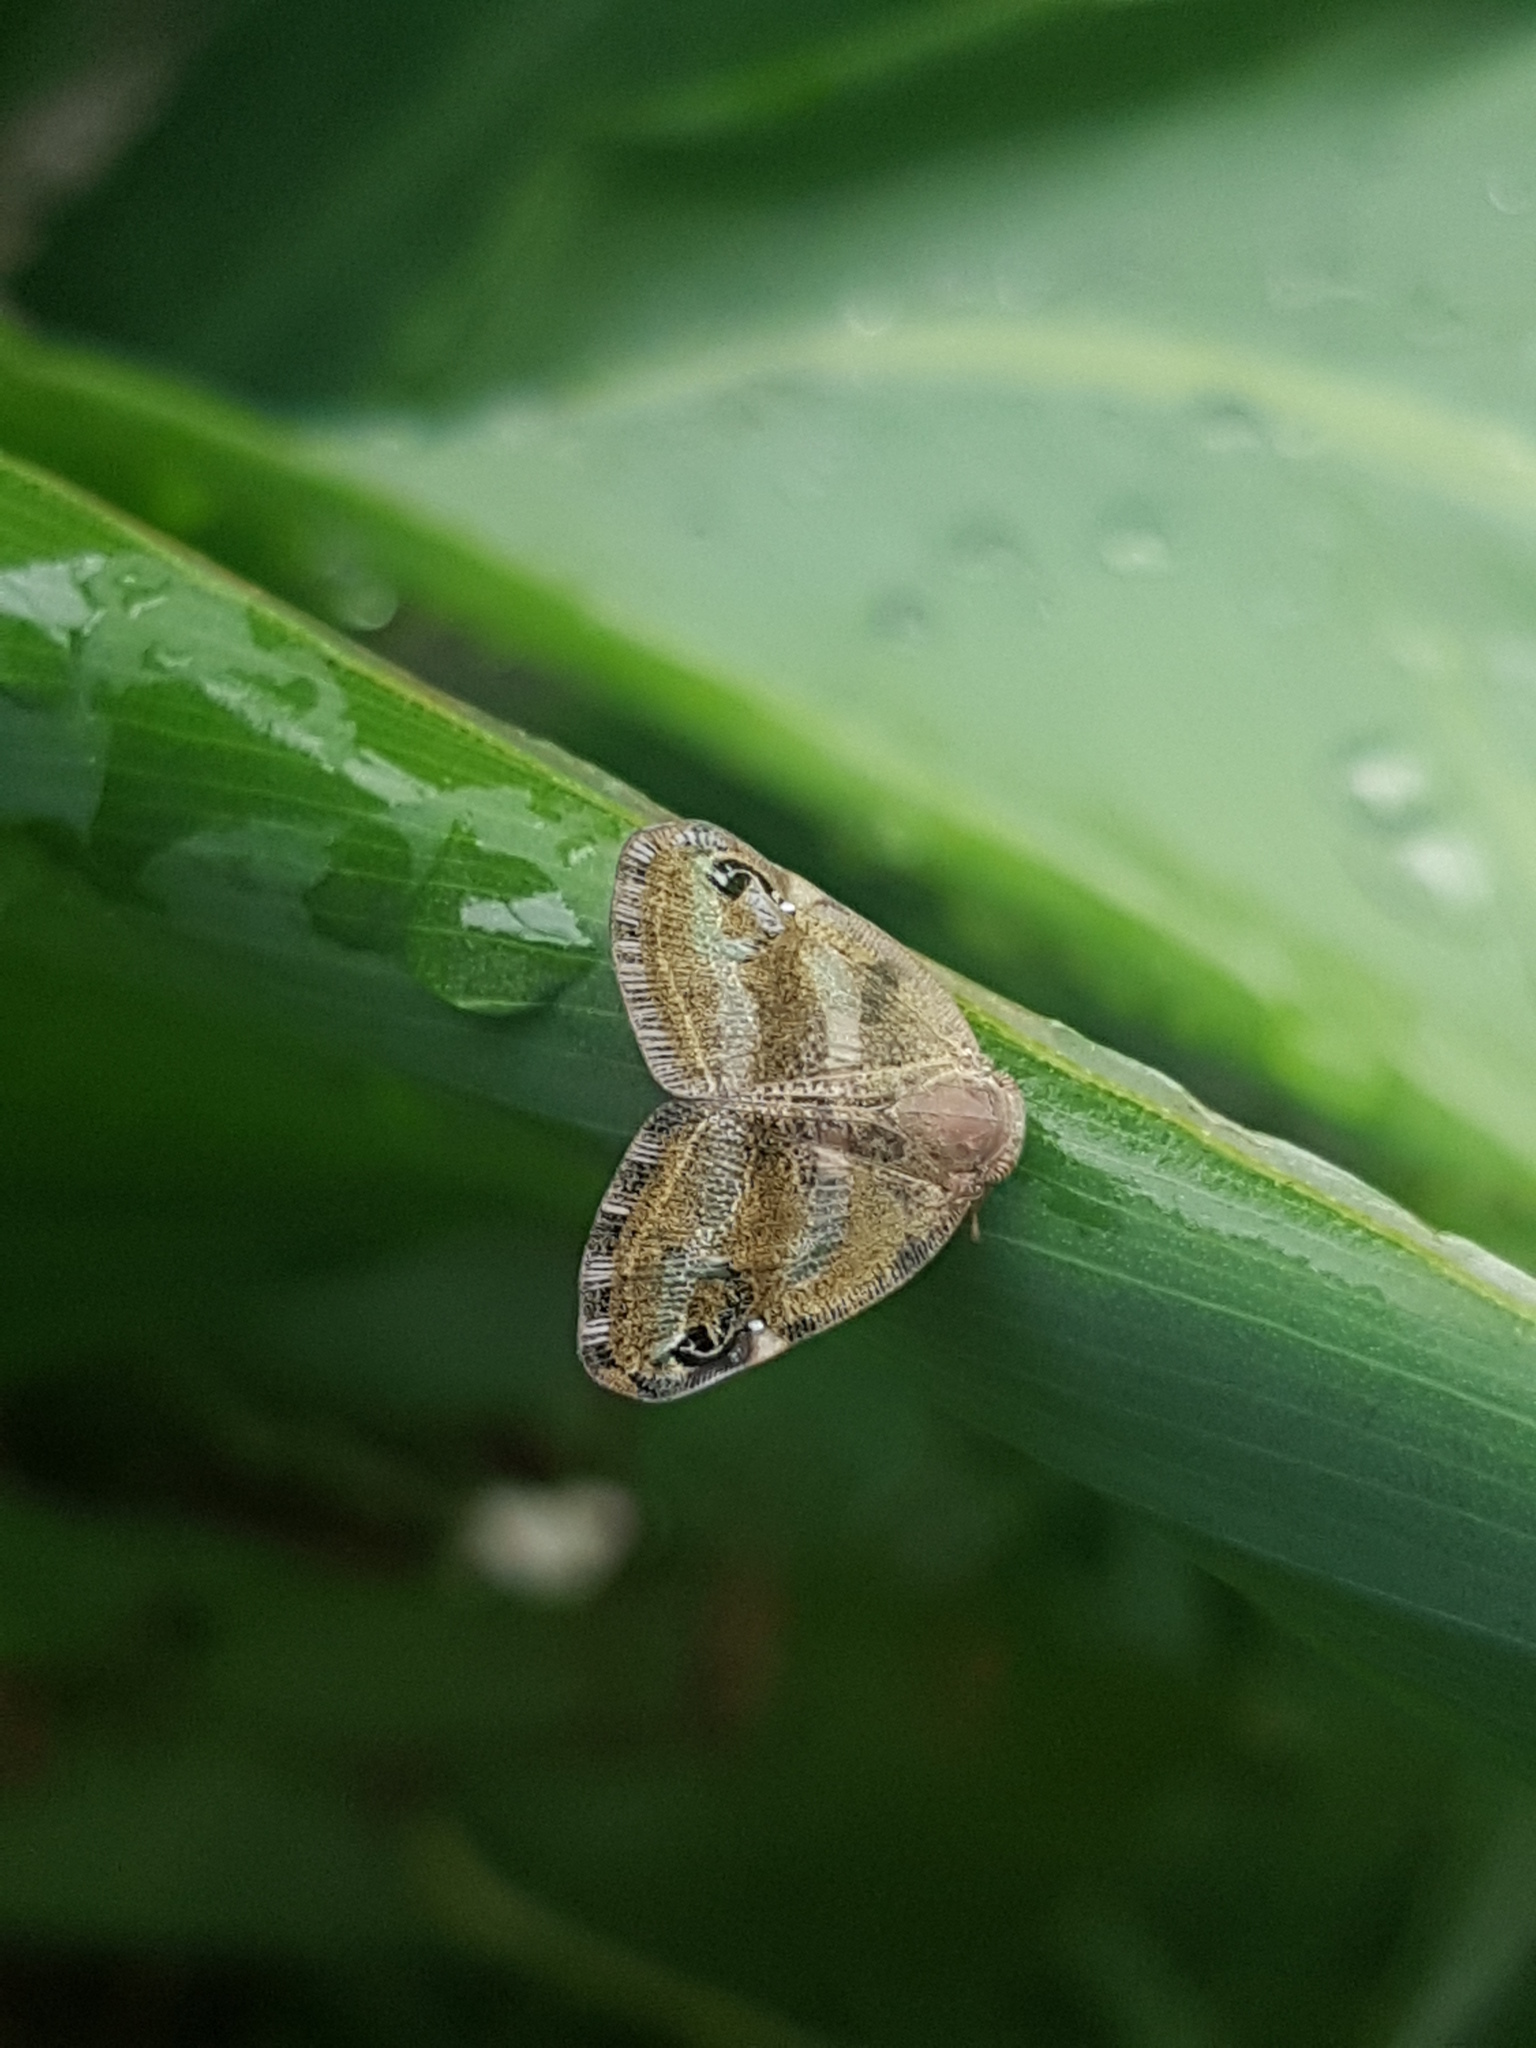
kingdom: Animalia
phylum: Arthropoda
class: Insecta
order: Hemiptera
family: Ricaniidae
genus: Orosanga
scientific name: Orosanga japonica
